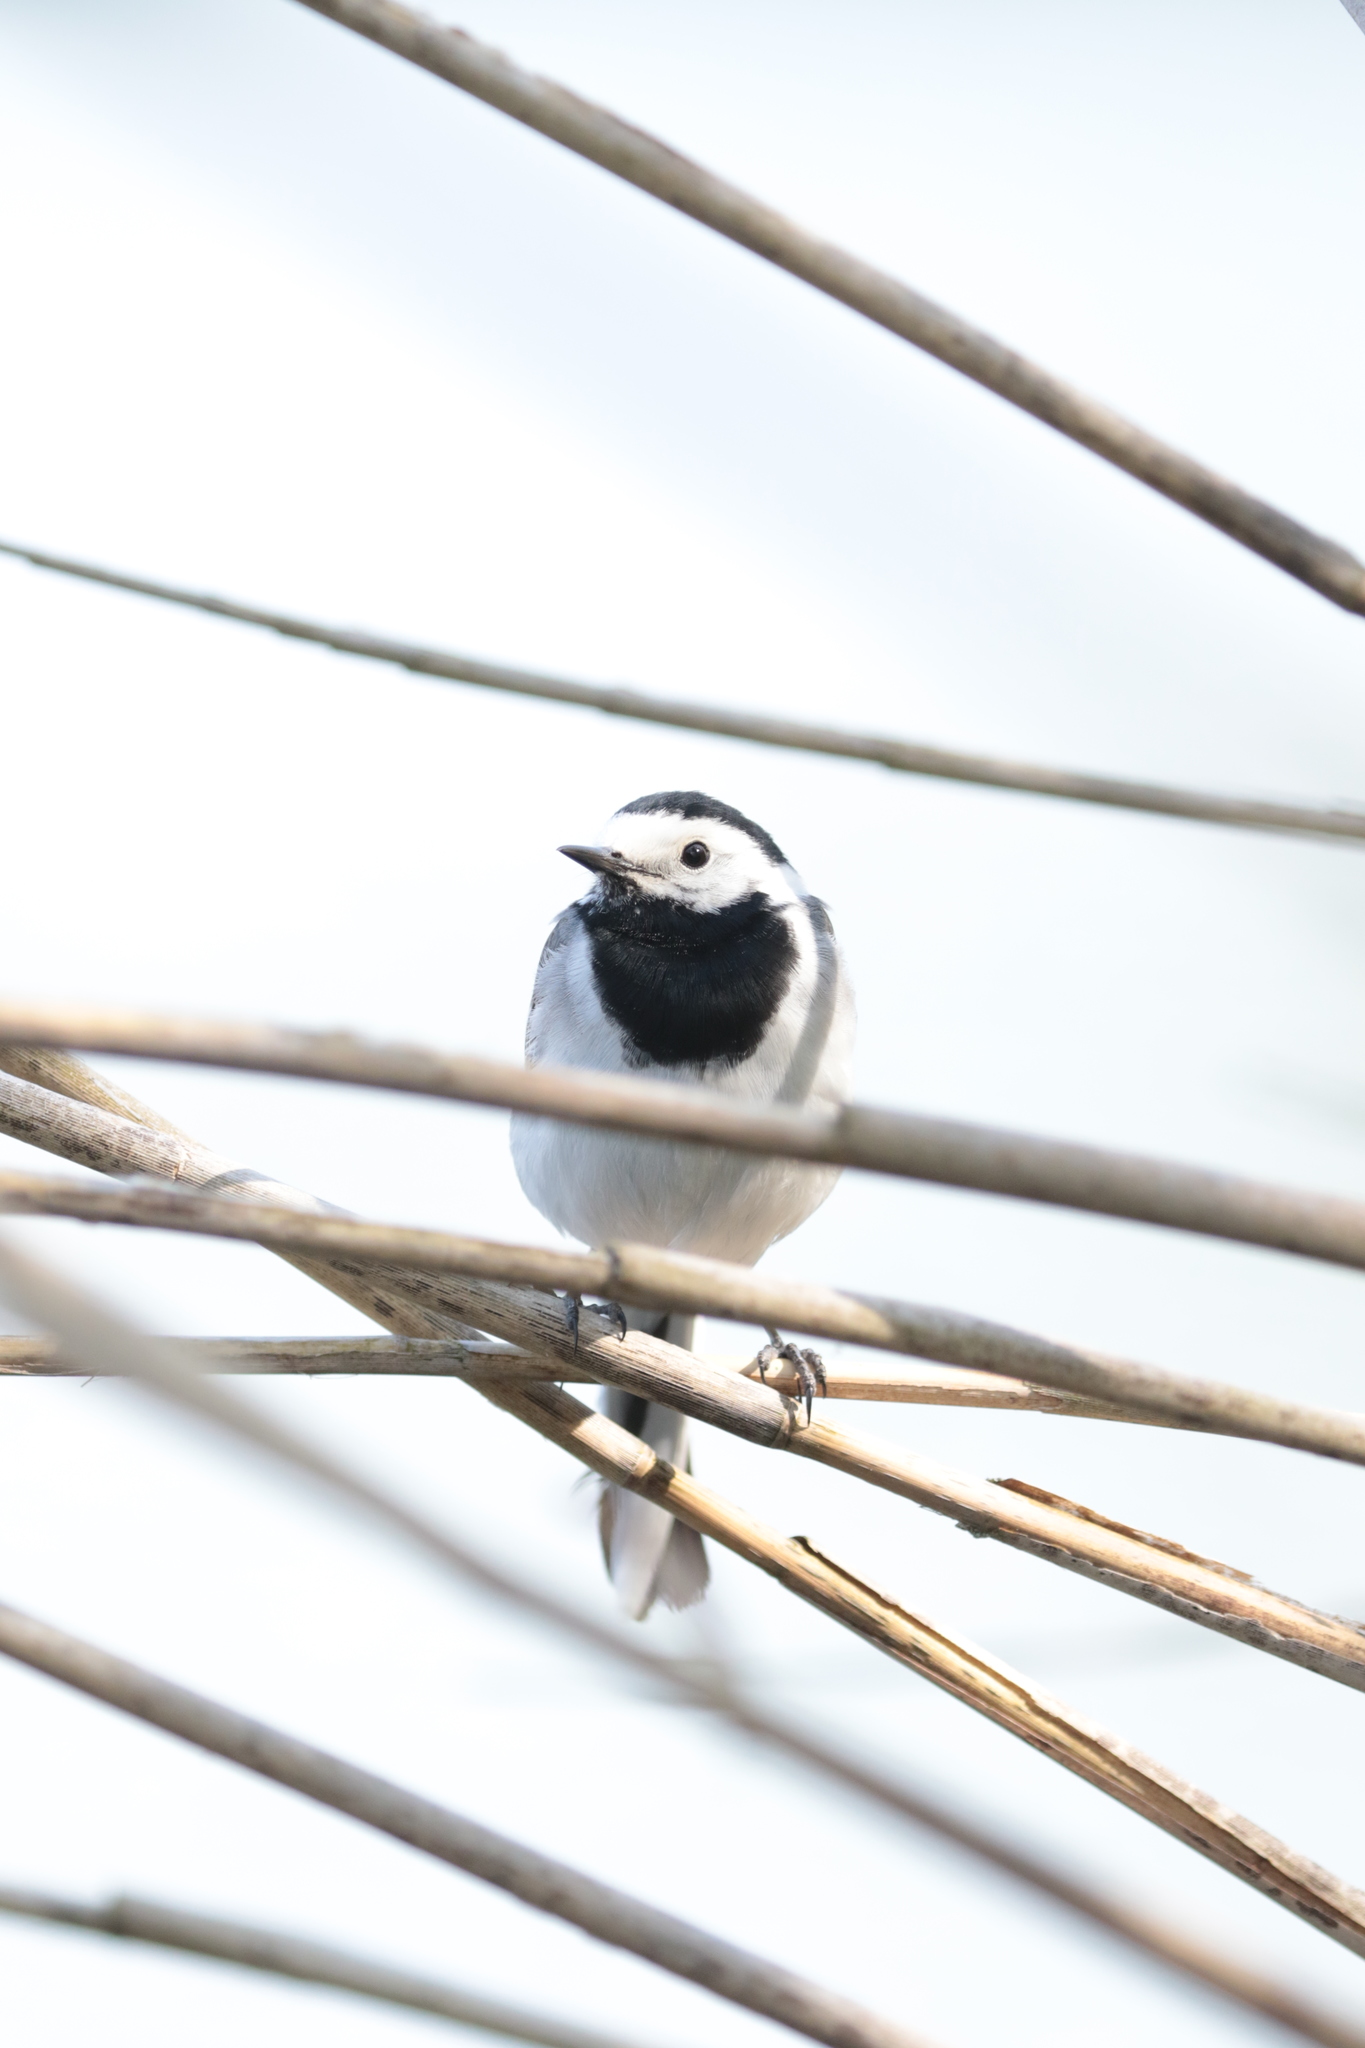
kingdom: Animalia
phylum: Chordata
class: Aves
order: Passeriformes
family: Motacillidae
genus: Motacilla
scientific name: Motacilla alba
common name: White wagtail
